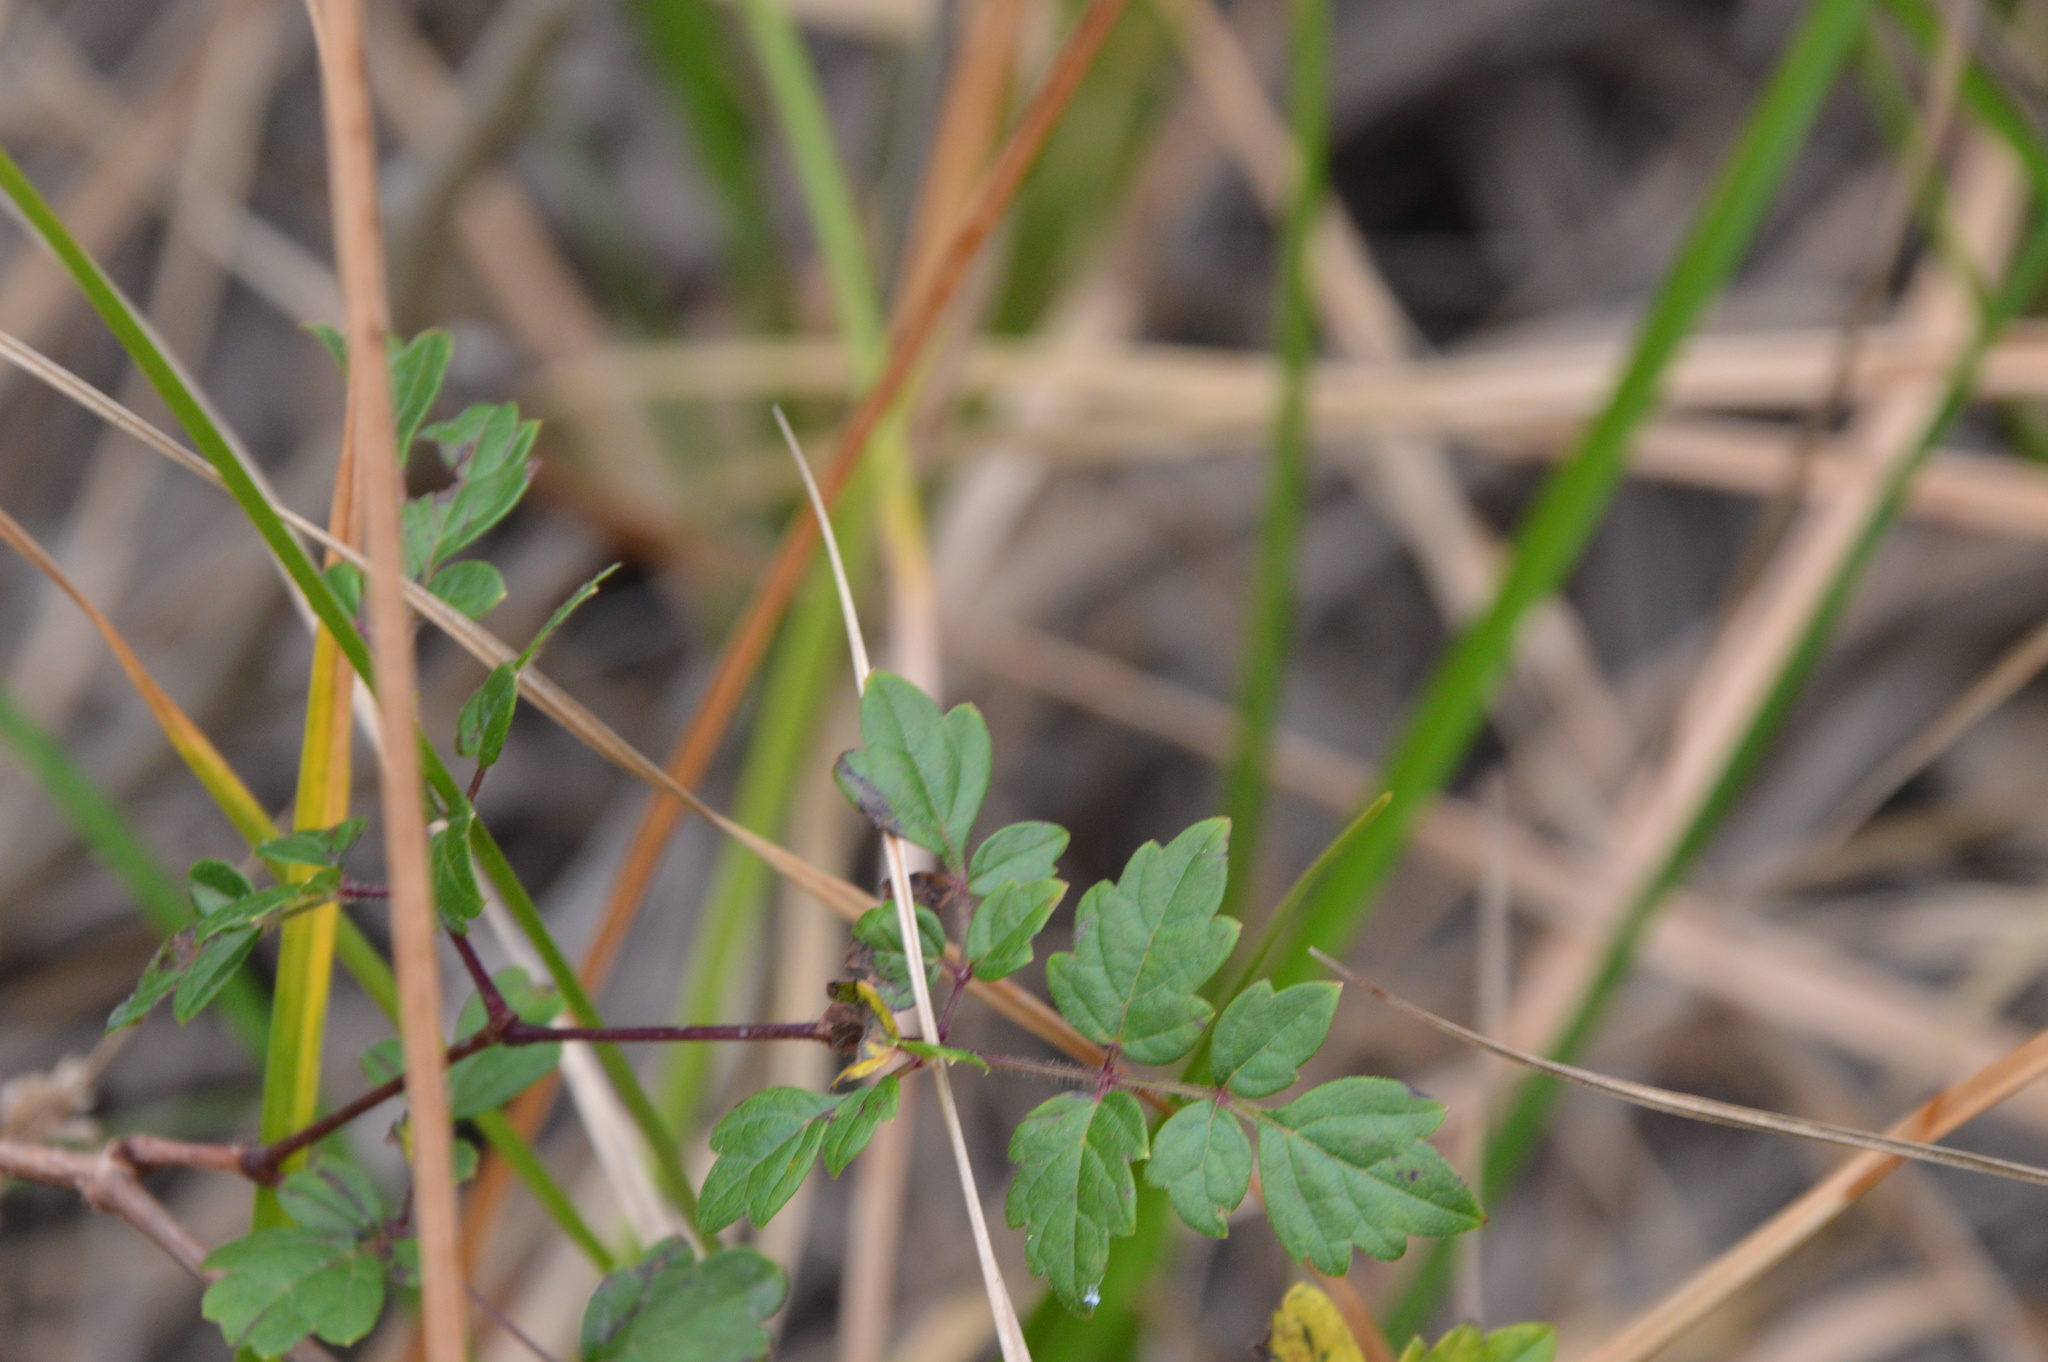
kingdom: Plantae
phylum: Tracheophyta
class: Magnoliopsida
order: Vitales
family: Vitaceae
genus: Nekemias
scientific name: Nekemias arborea
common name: Peppervine
